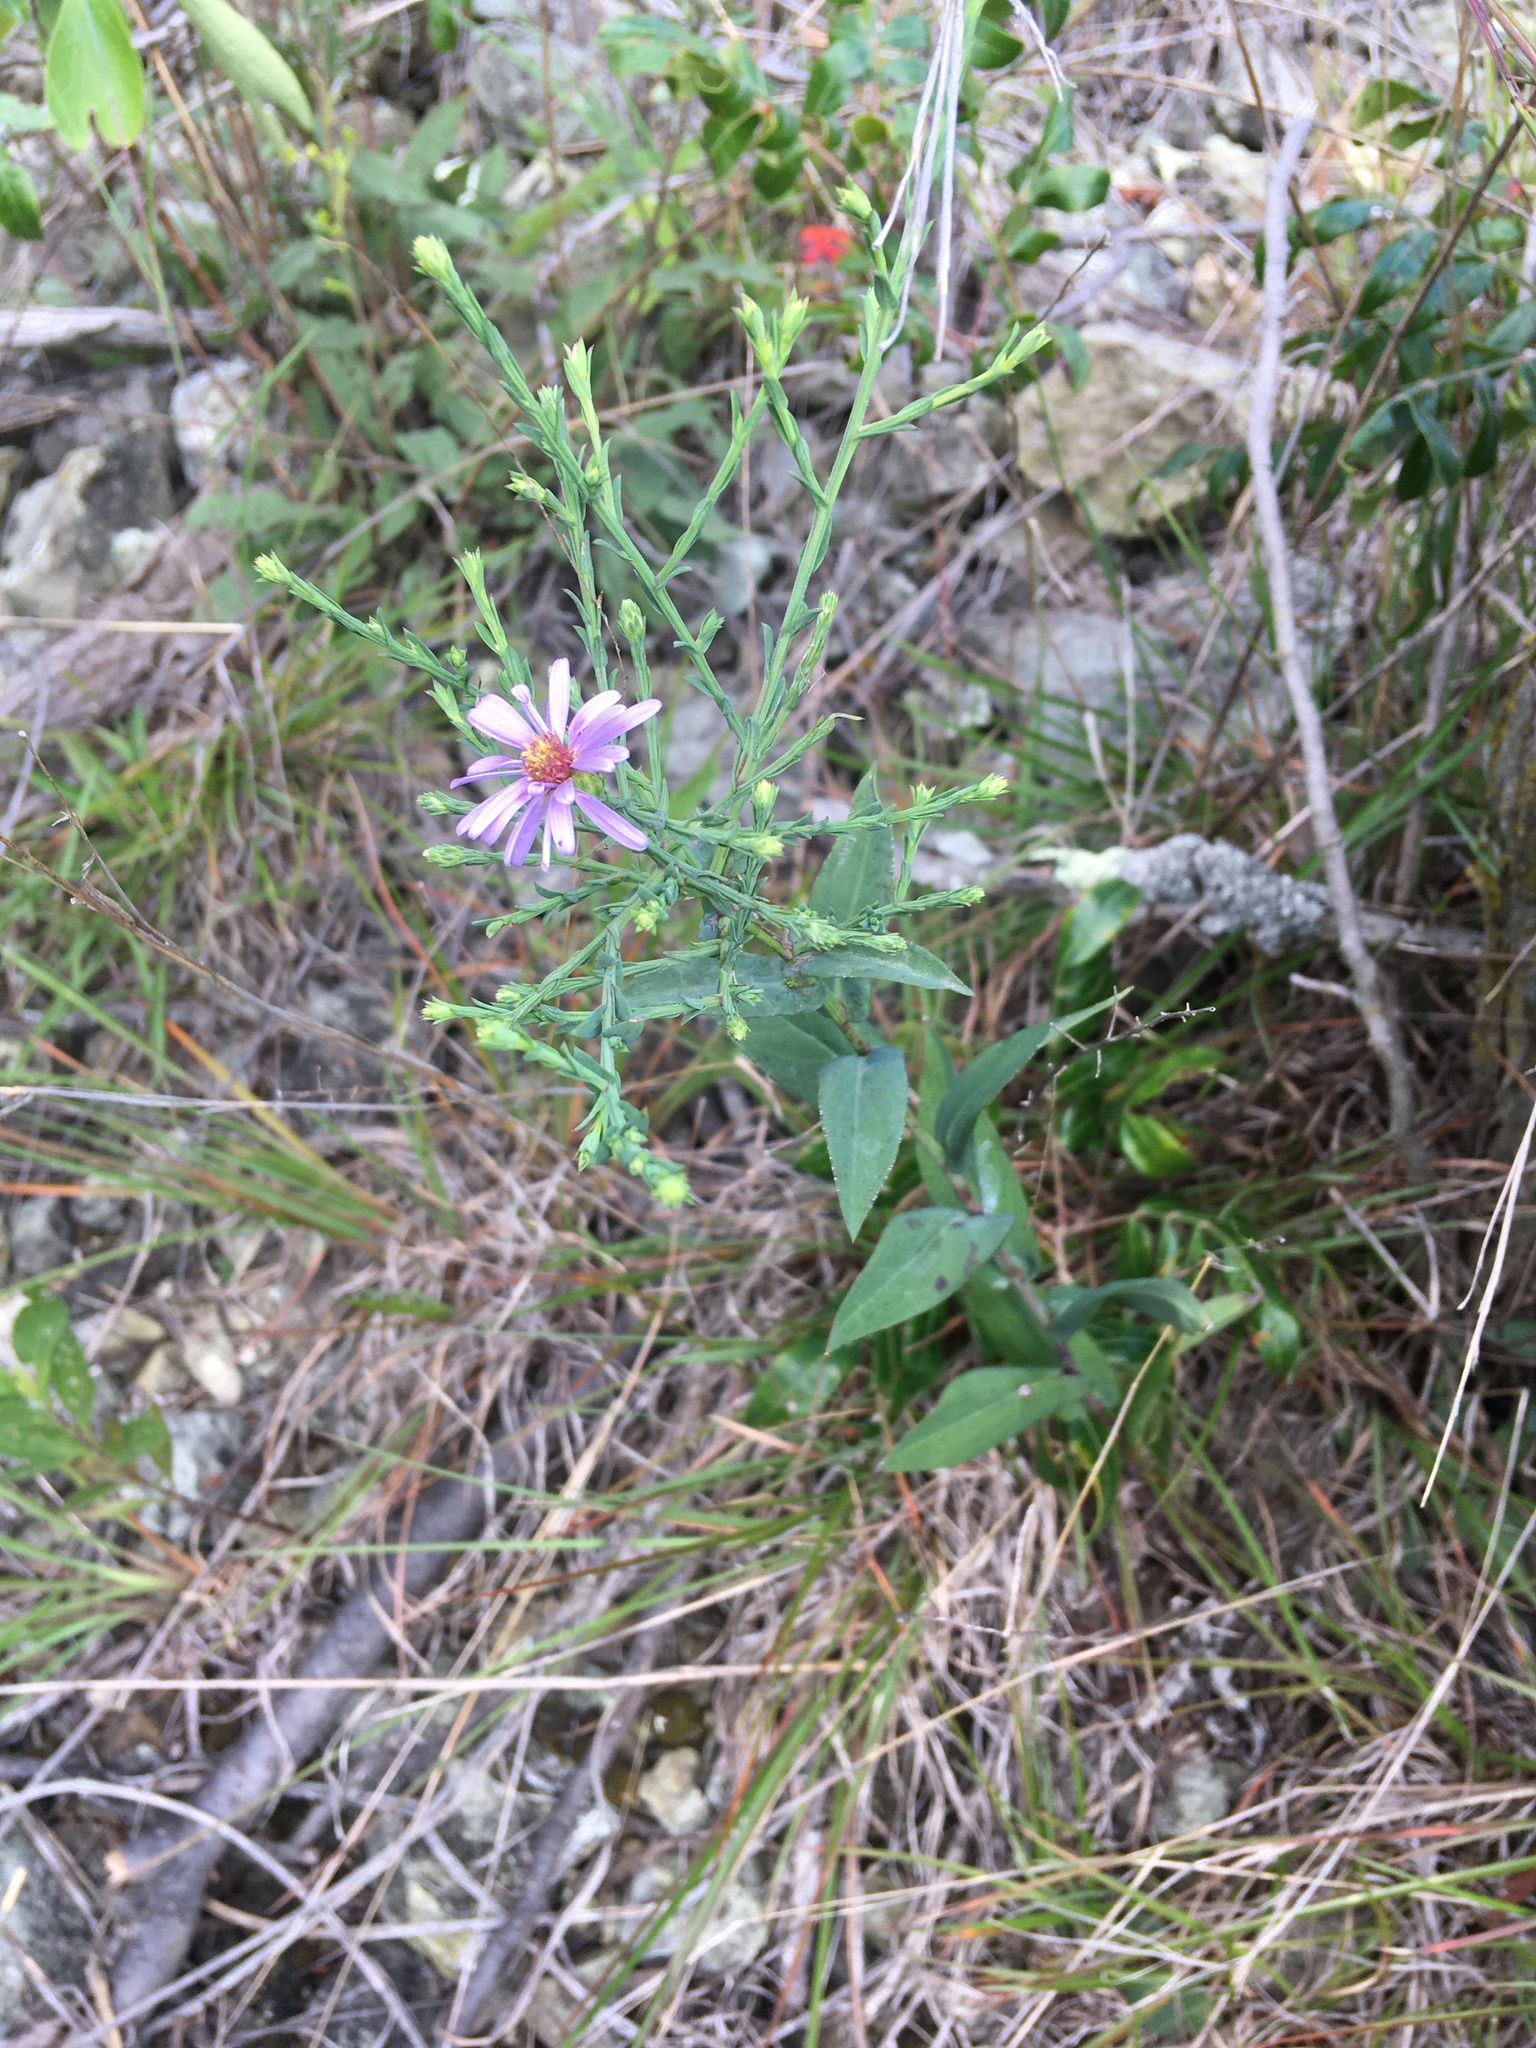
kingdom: Plantae
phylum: Tracheophyta
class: Magnoliopsida
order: Asterales
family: Asteraceae
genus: Symphyotrichum
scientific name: Symphyotrichum laeve
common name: Glaucous aster
